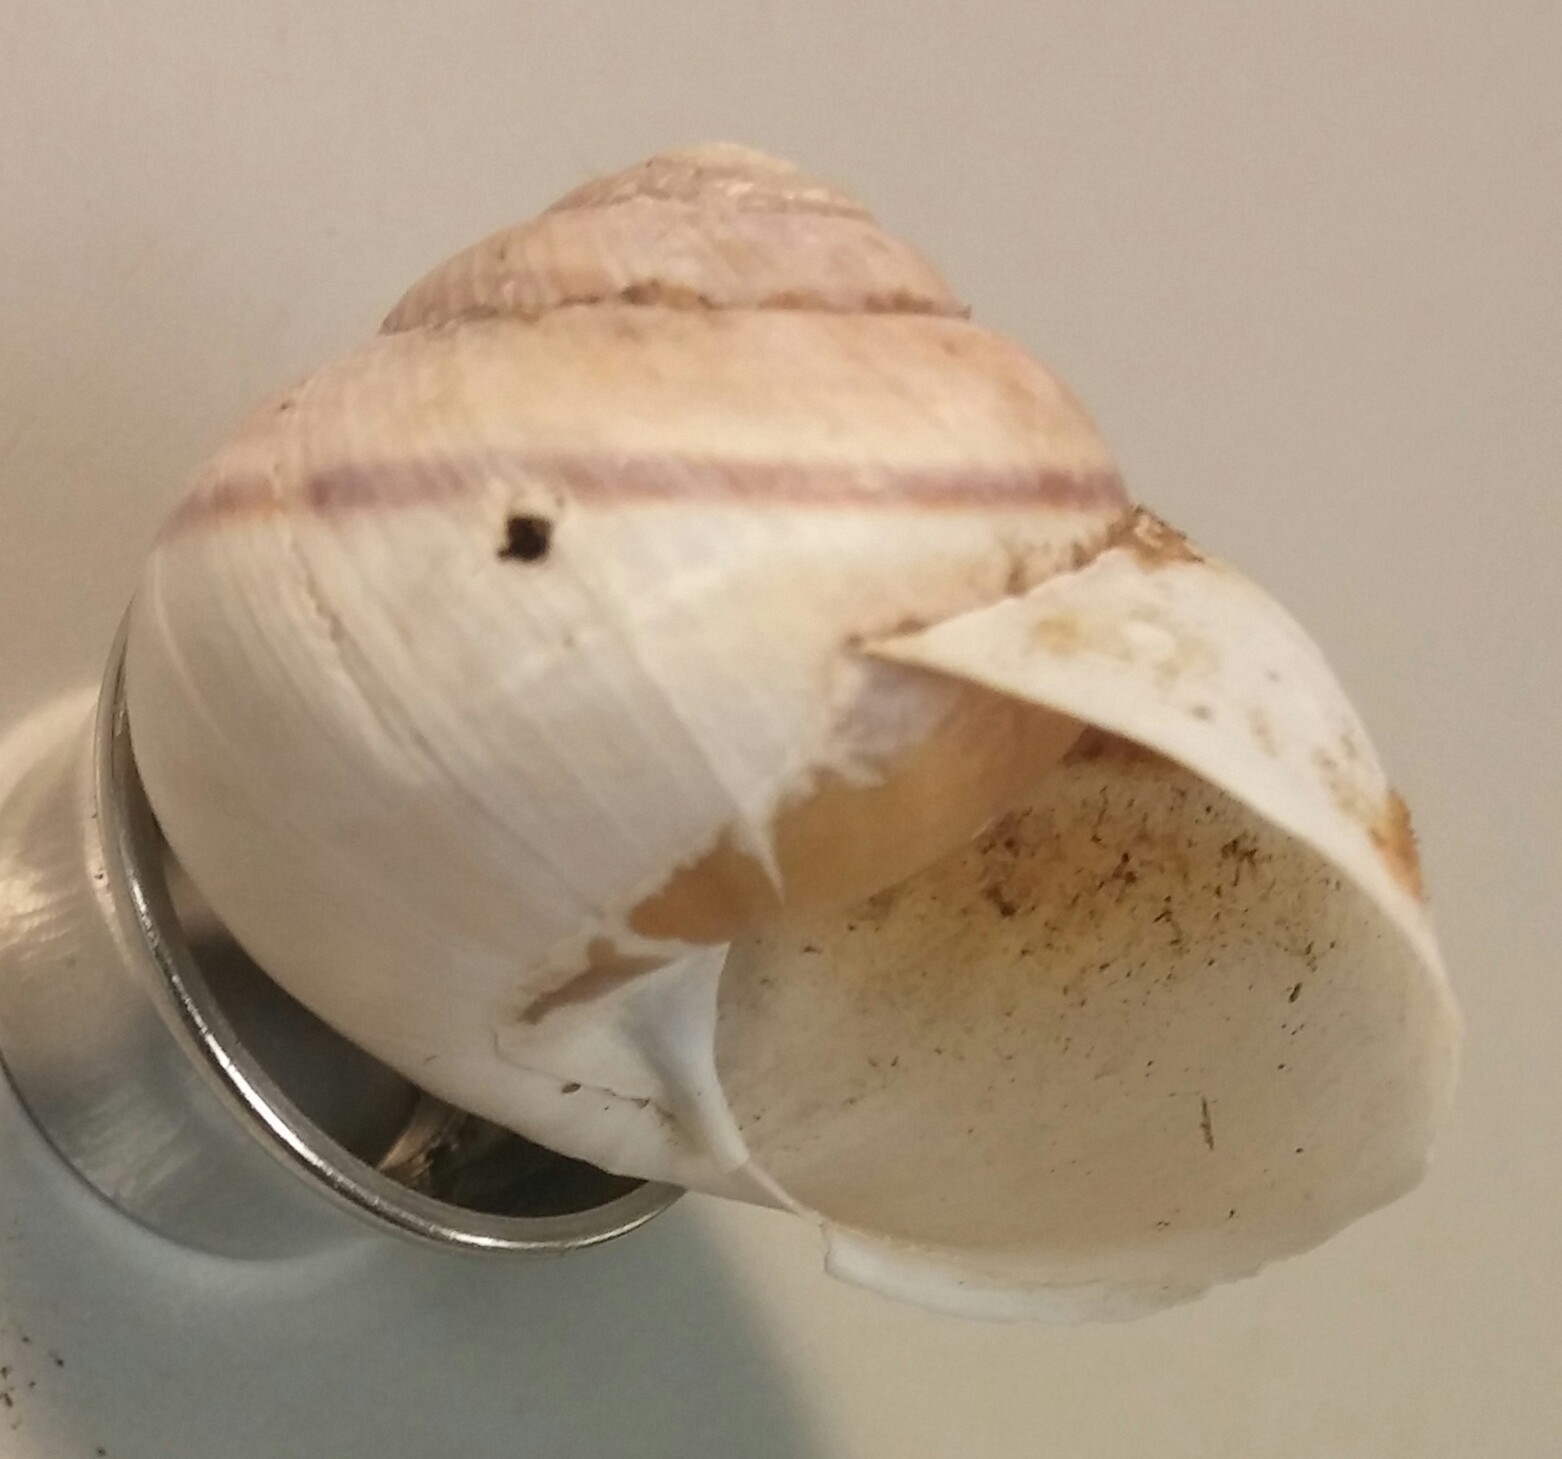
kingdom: Animalia
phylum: Mollusca
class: Gastropoda
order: Stylommatophora
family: Xanthonychidae
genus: Helminthoglypta
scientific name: Helminthoglypta tudiculata
